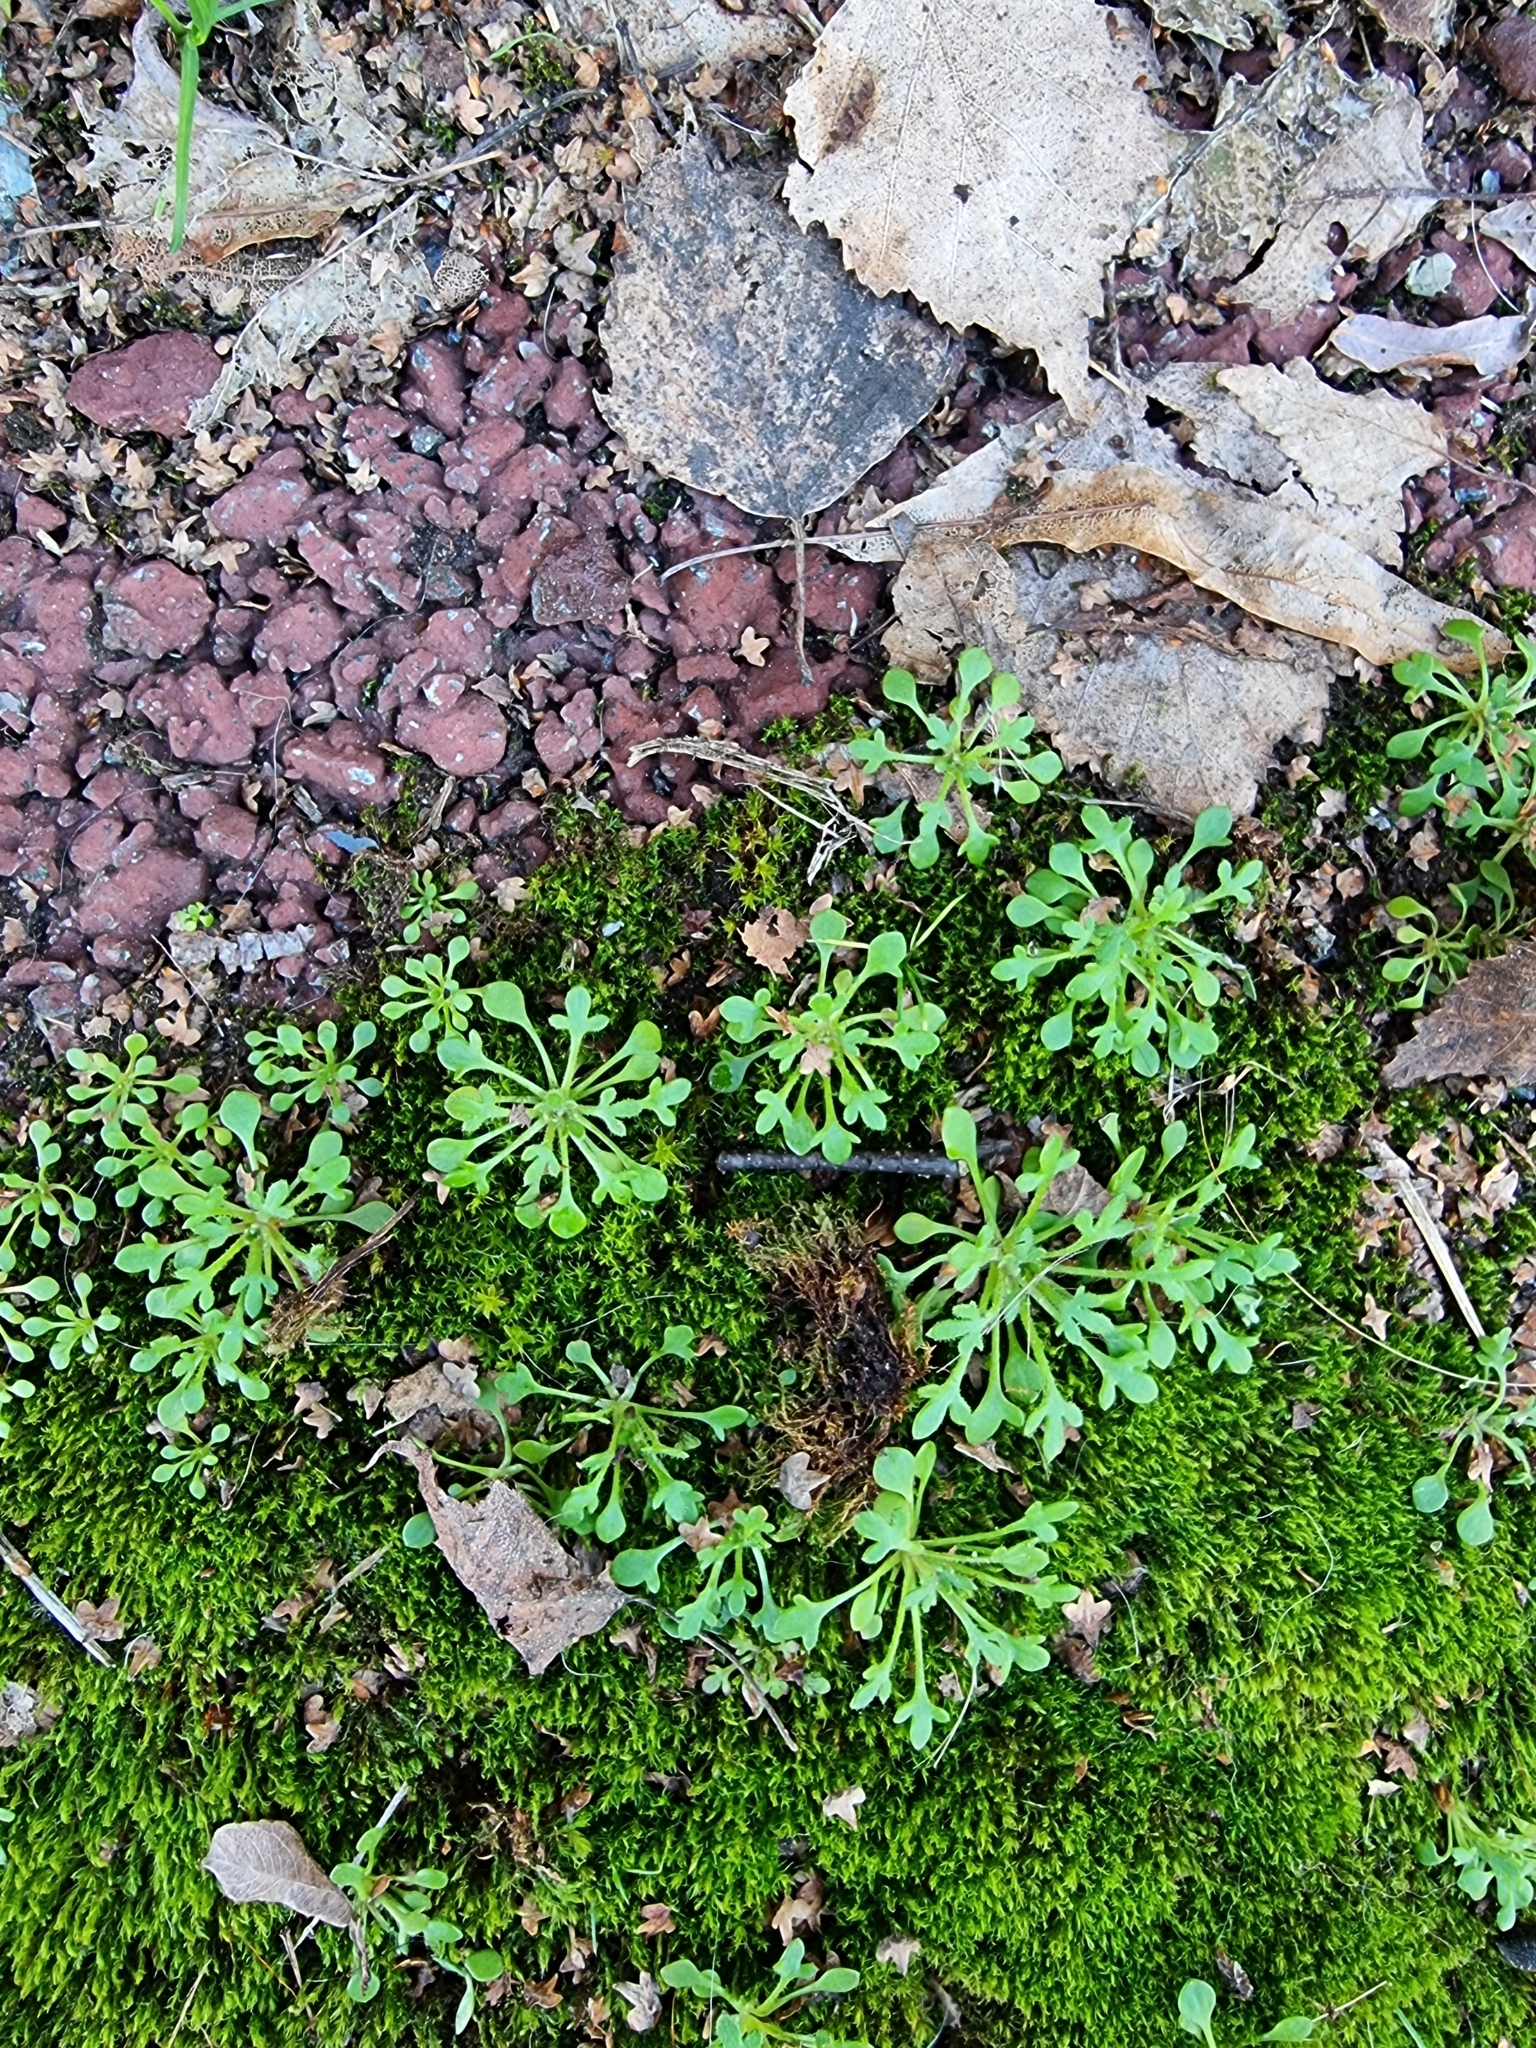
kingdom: Plantae
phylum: Tracheophyta
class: Magnoliopsida
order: Saxifragales
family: Saxifragaceae
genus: Saxifraga
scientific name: Saxifraga tridactylites
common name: Rue-leaved saxifrage
